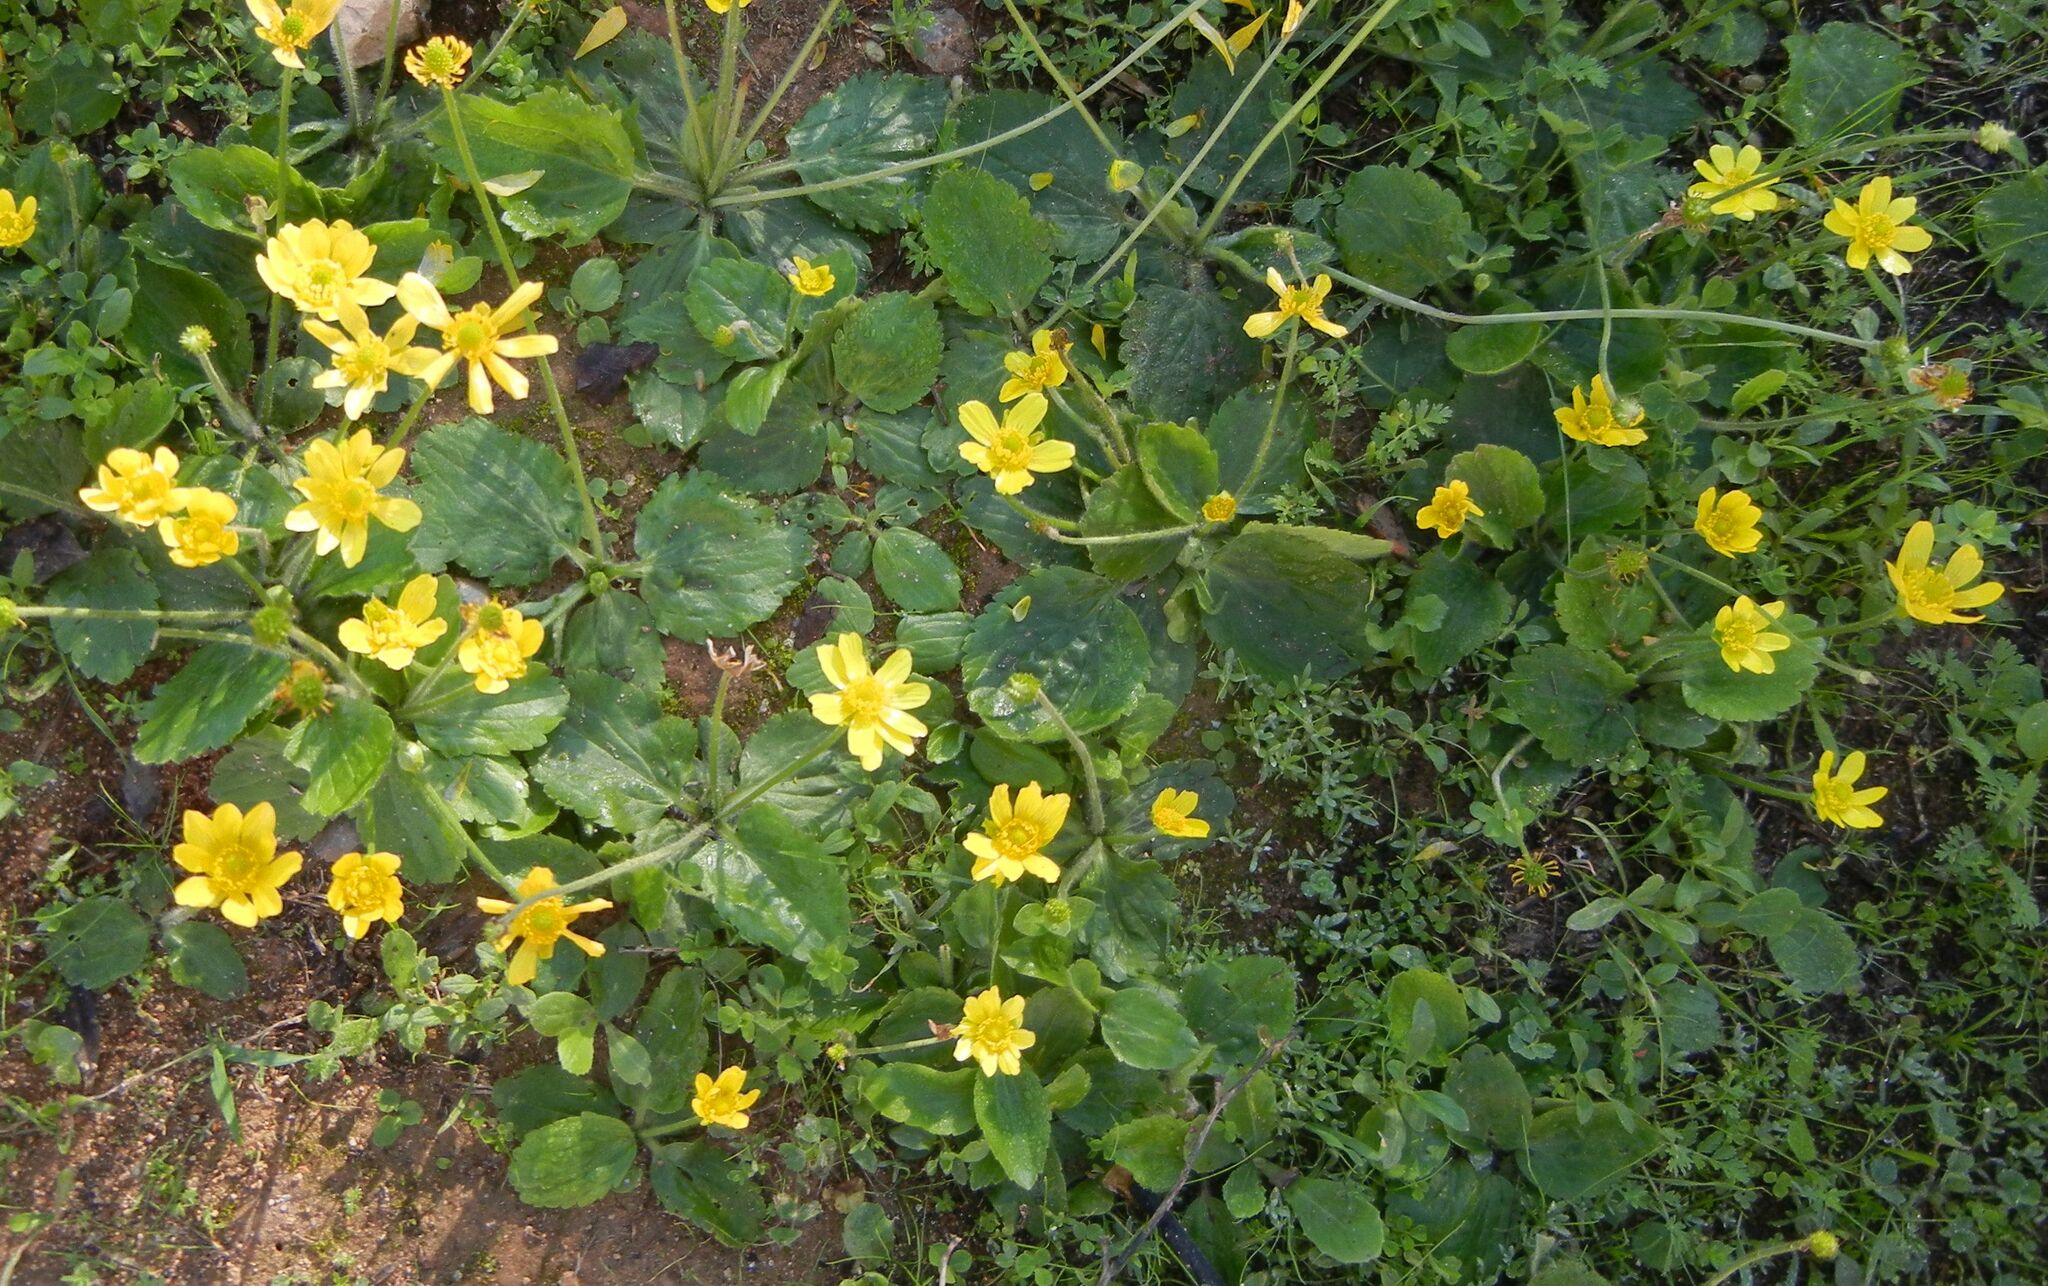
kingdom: Plantae
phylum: Tracheophyta
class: Magnoliopsida
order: Ranunculales
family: Ranunculaceae
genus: Ranunculus
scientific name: Ranunculus bullatus
